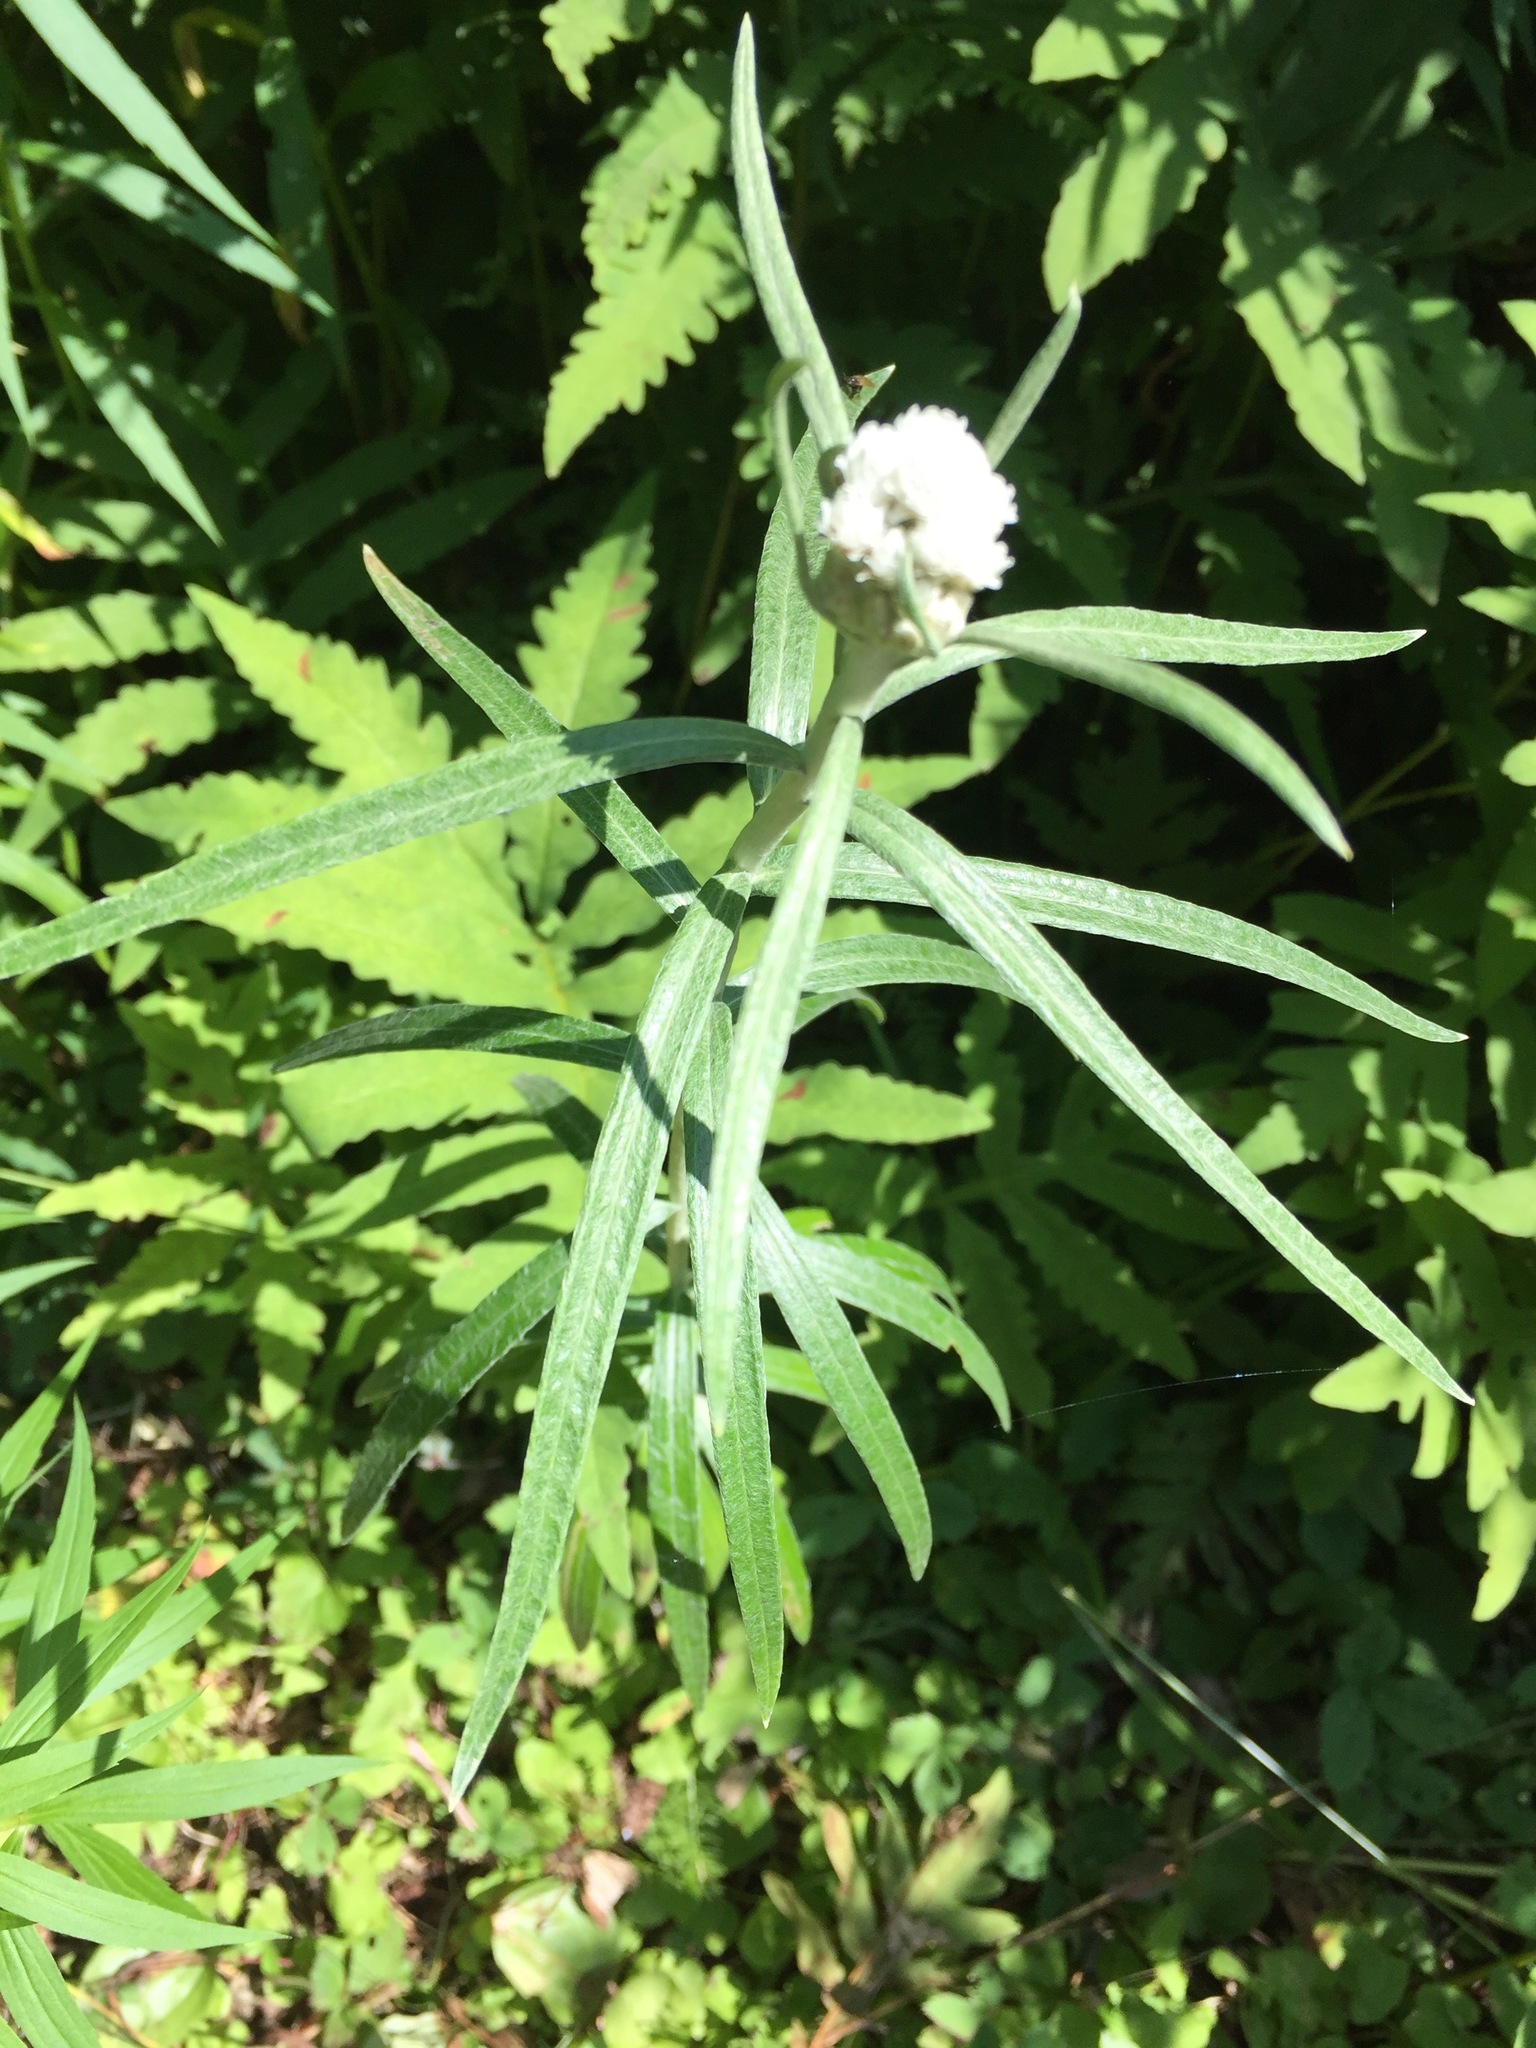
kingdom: Plantae
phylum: Tracheophyta
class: Magnoliopsida
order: Asterales
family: Asteraceae
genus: Anaphalis
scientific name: Anaphalis margaritacea
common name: Pearly everlasting
